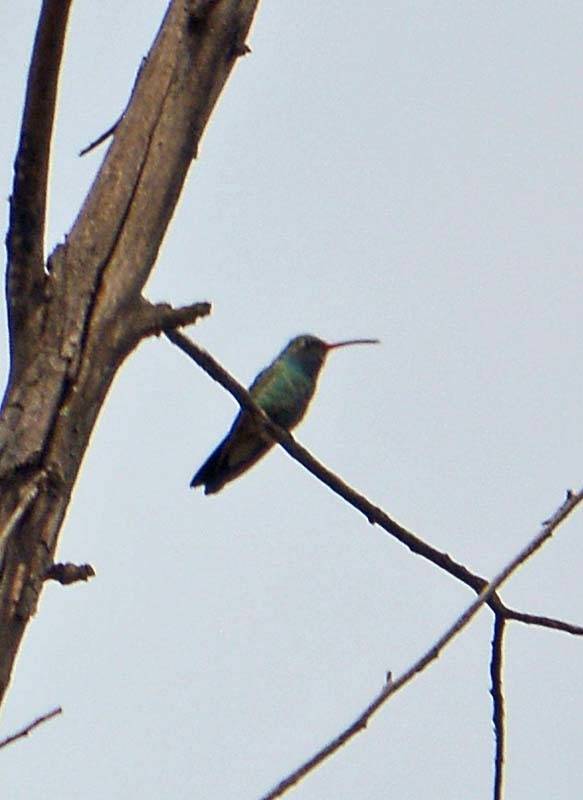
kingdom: Animalia
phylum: Chordata
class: Aves
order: Apodiformes
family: Trochilidae
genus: Cynanthus
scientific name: Cynanthus latirostris
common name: Broad-billed hummingbird
